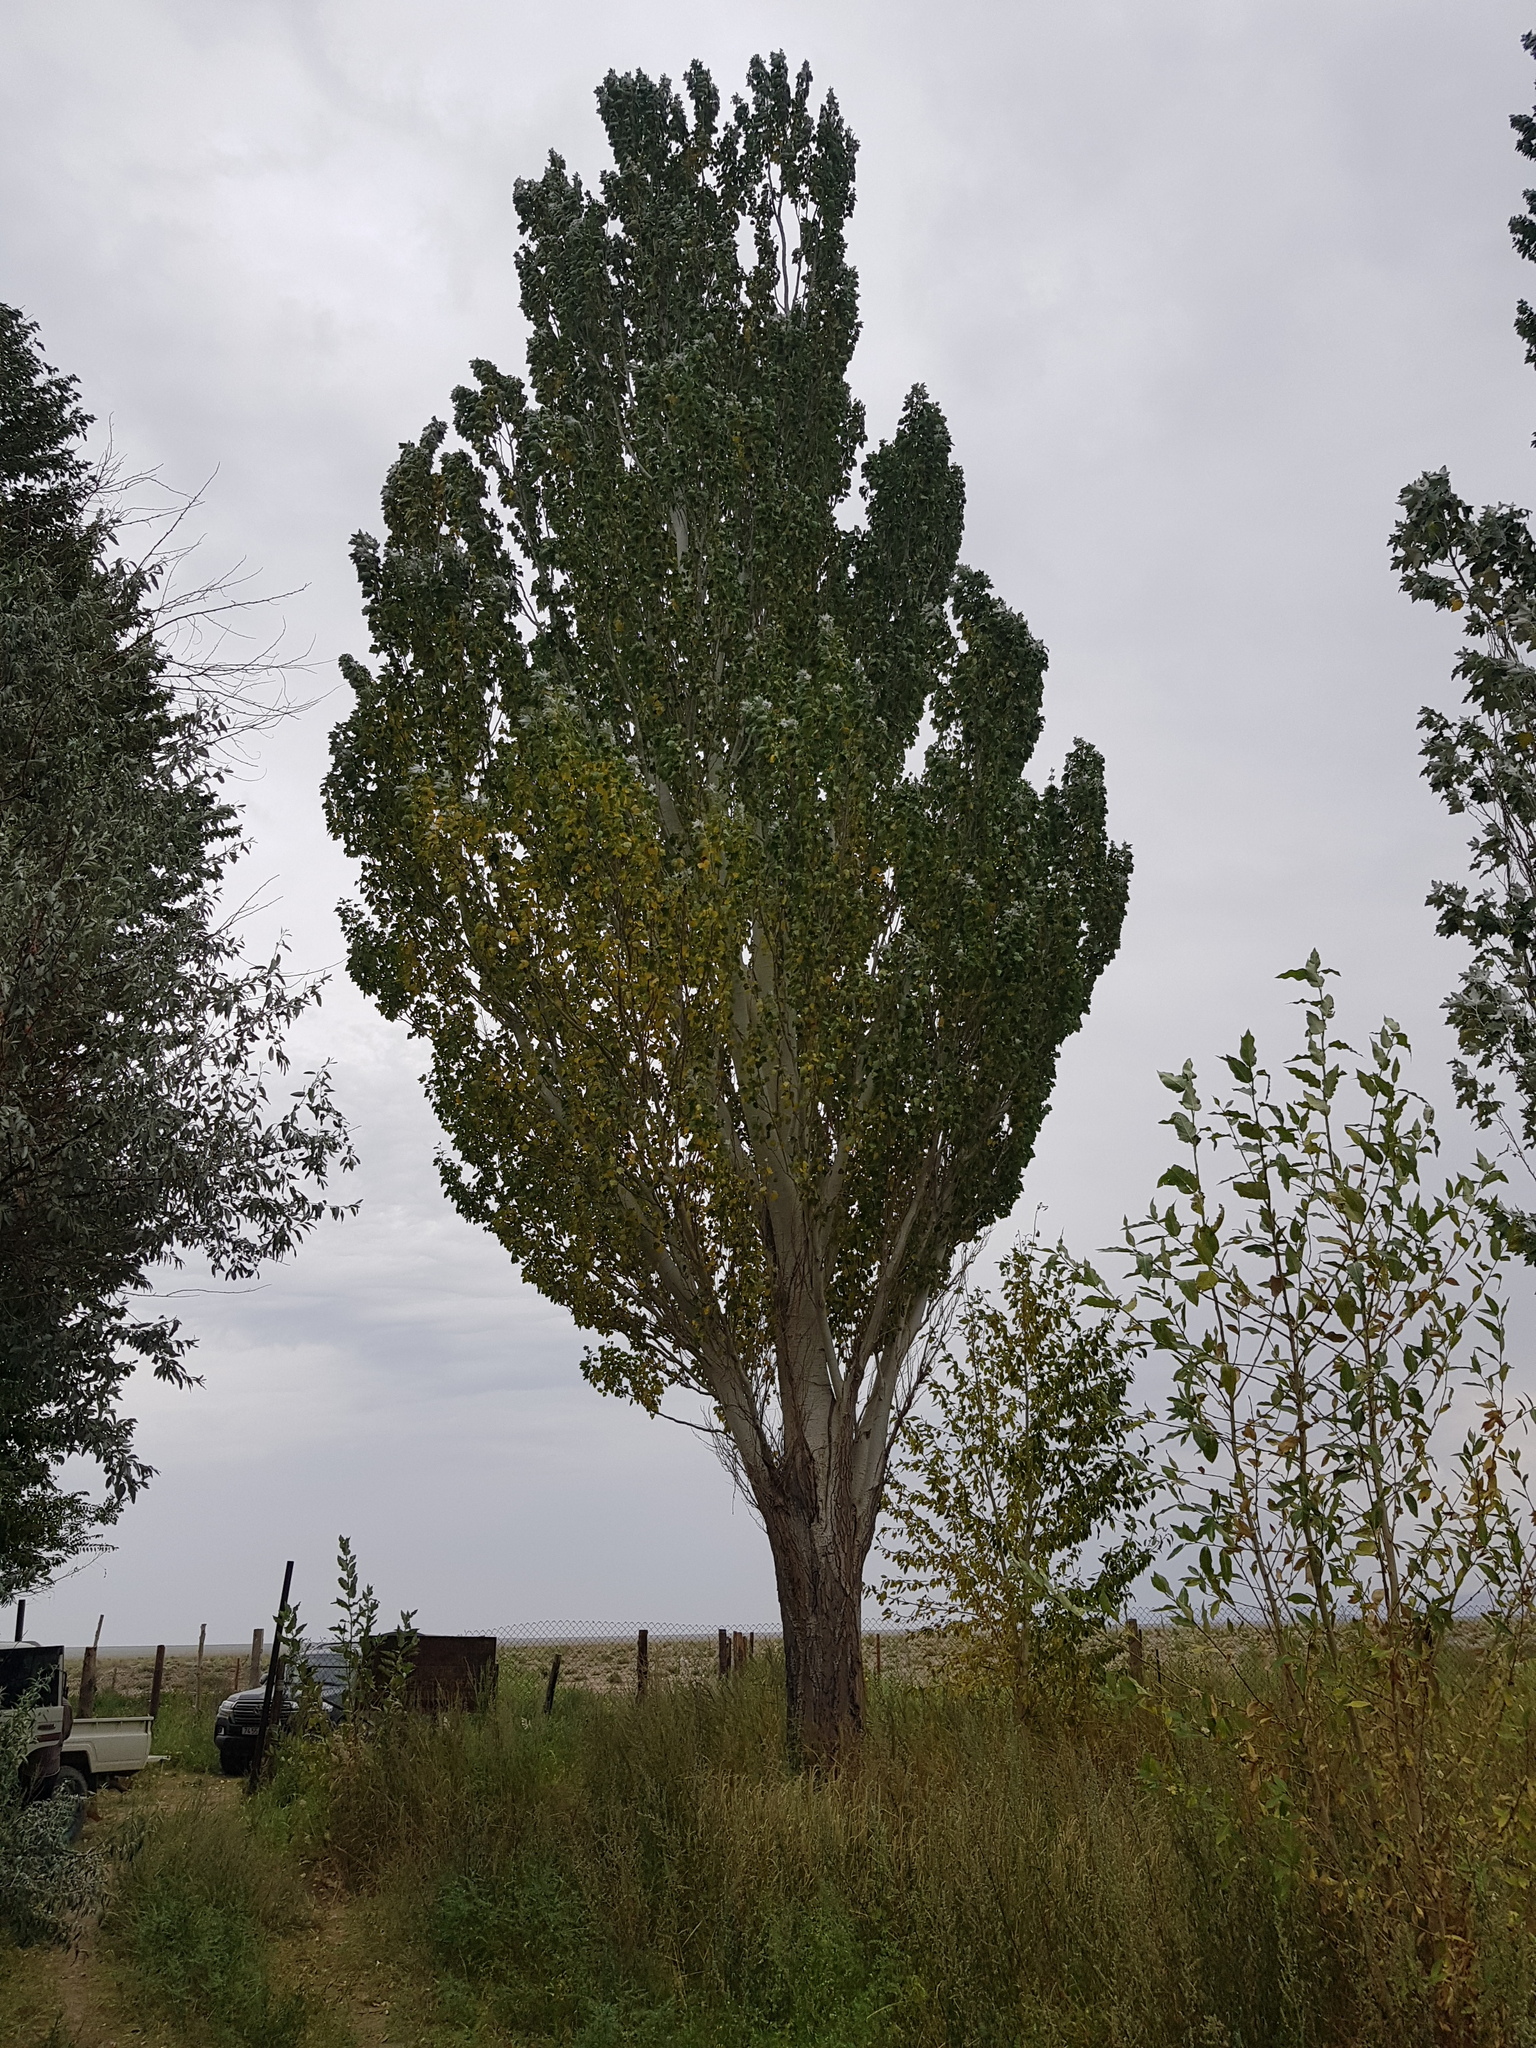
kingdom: Plantae
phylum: Tracheophyta
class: Magnoliopsida
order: Malpighiales
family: Salicaceae
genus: Populus
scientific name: Populus alba
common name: White poplar
